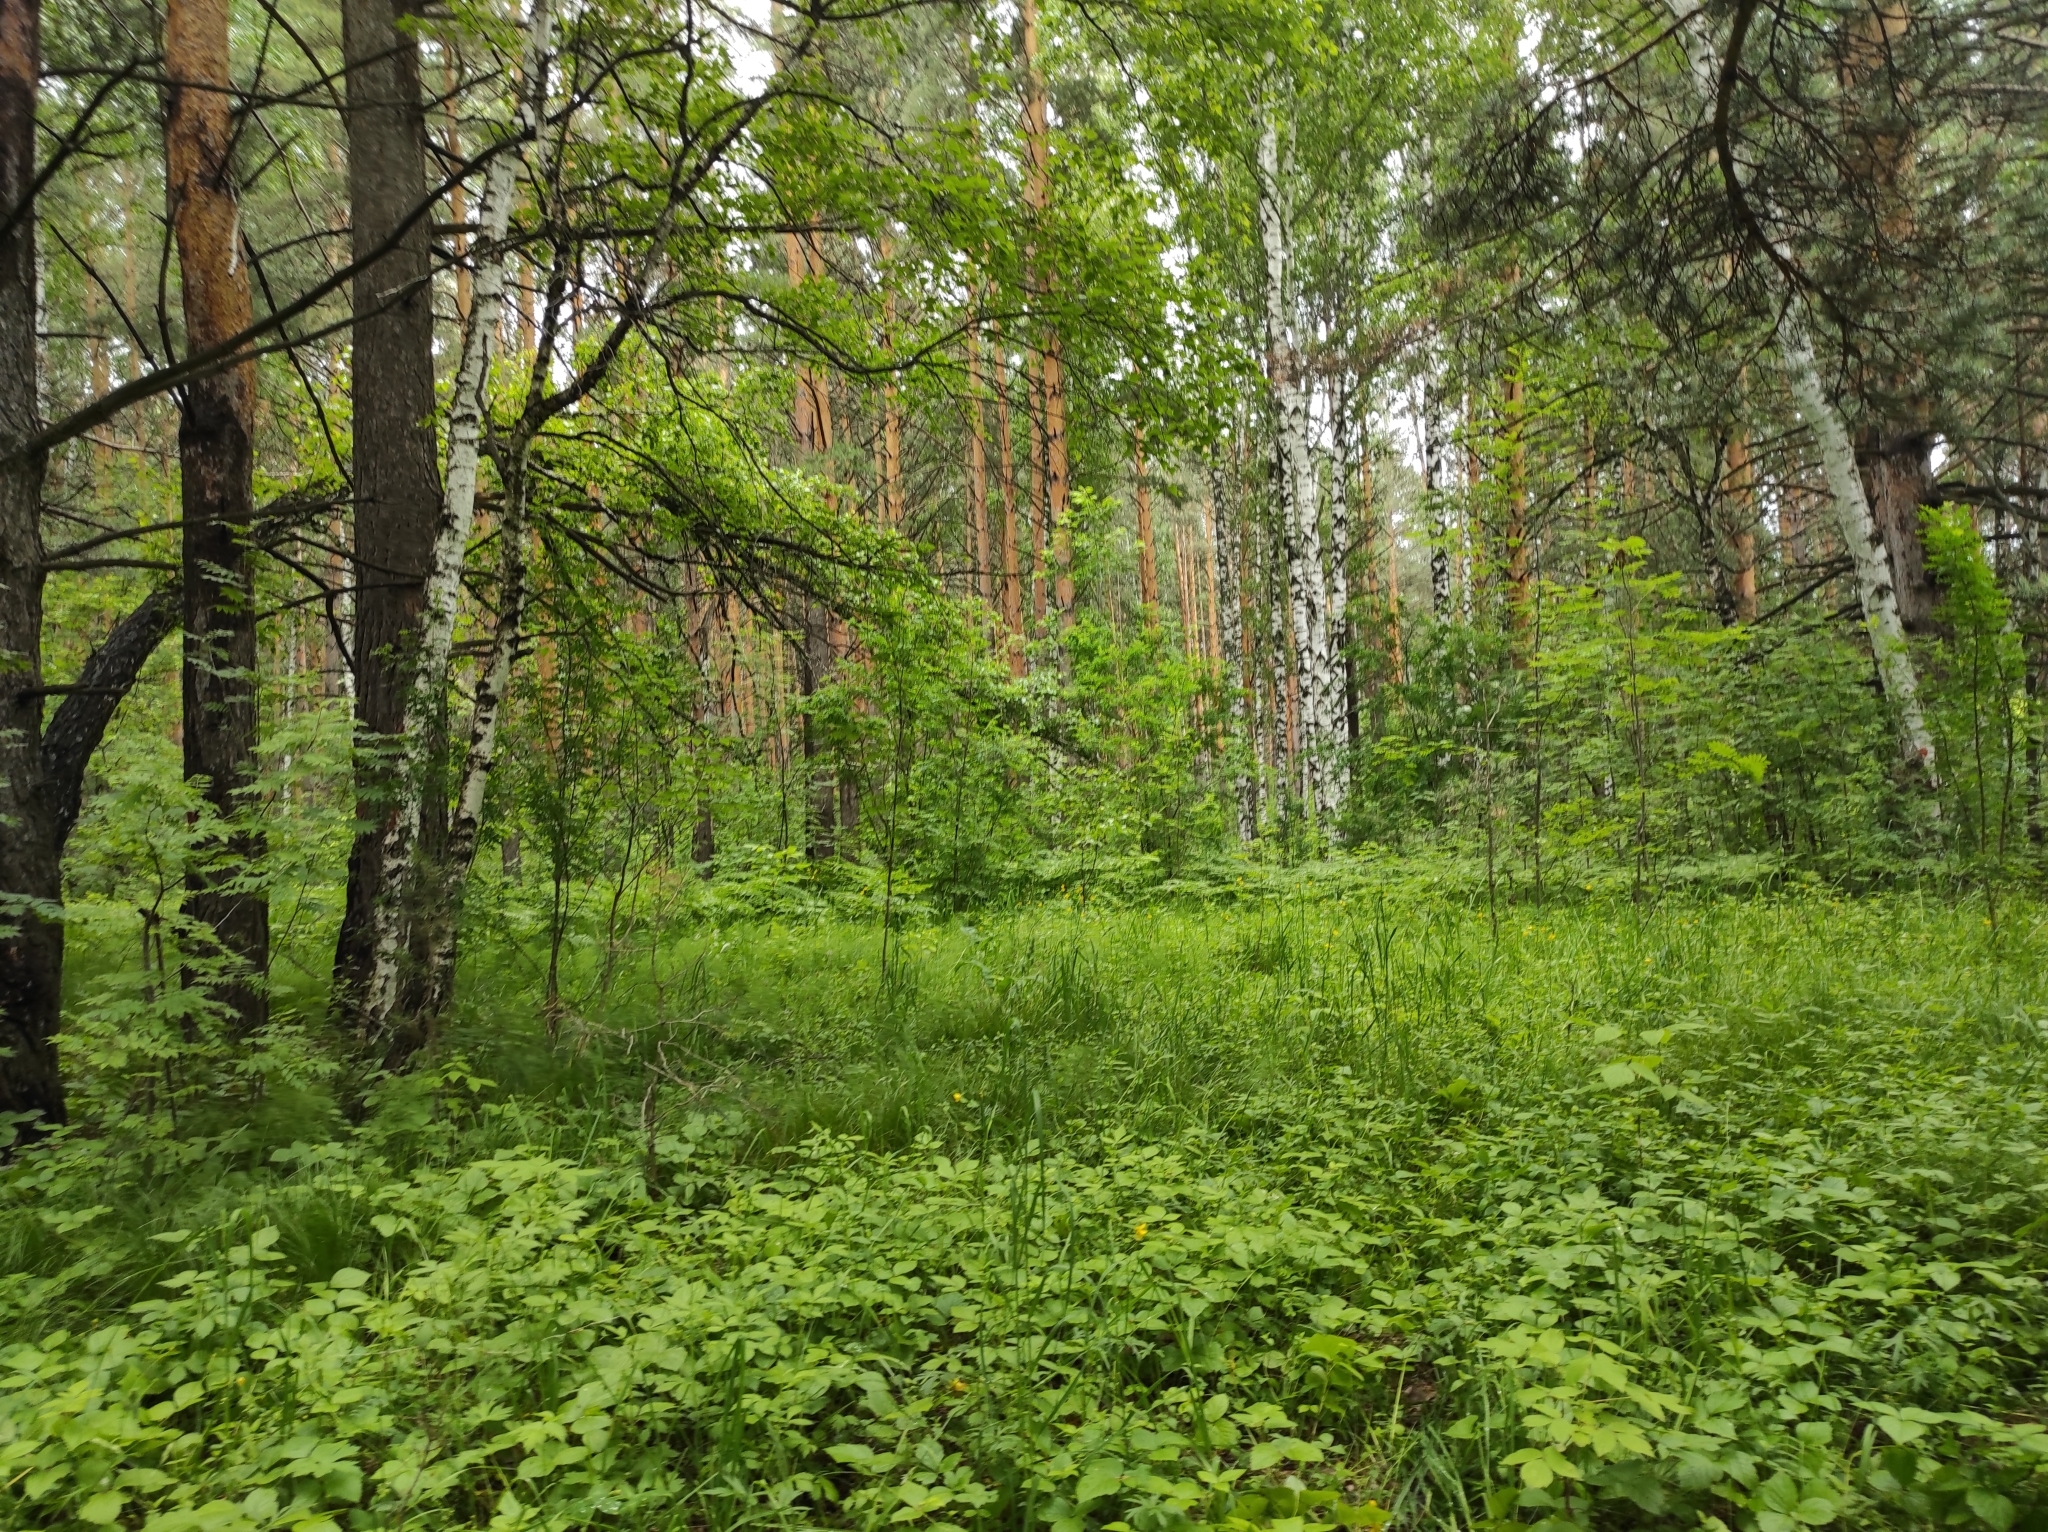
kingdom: Plantae
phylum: Tracheophyta
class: Pinopsida
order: Pinales
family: Pinaceae
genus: Pinus
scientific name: Pinus sylvestris
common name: Scots pine
